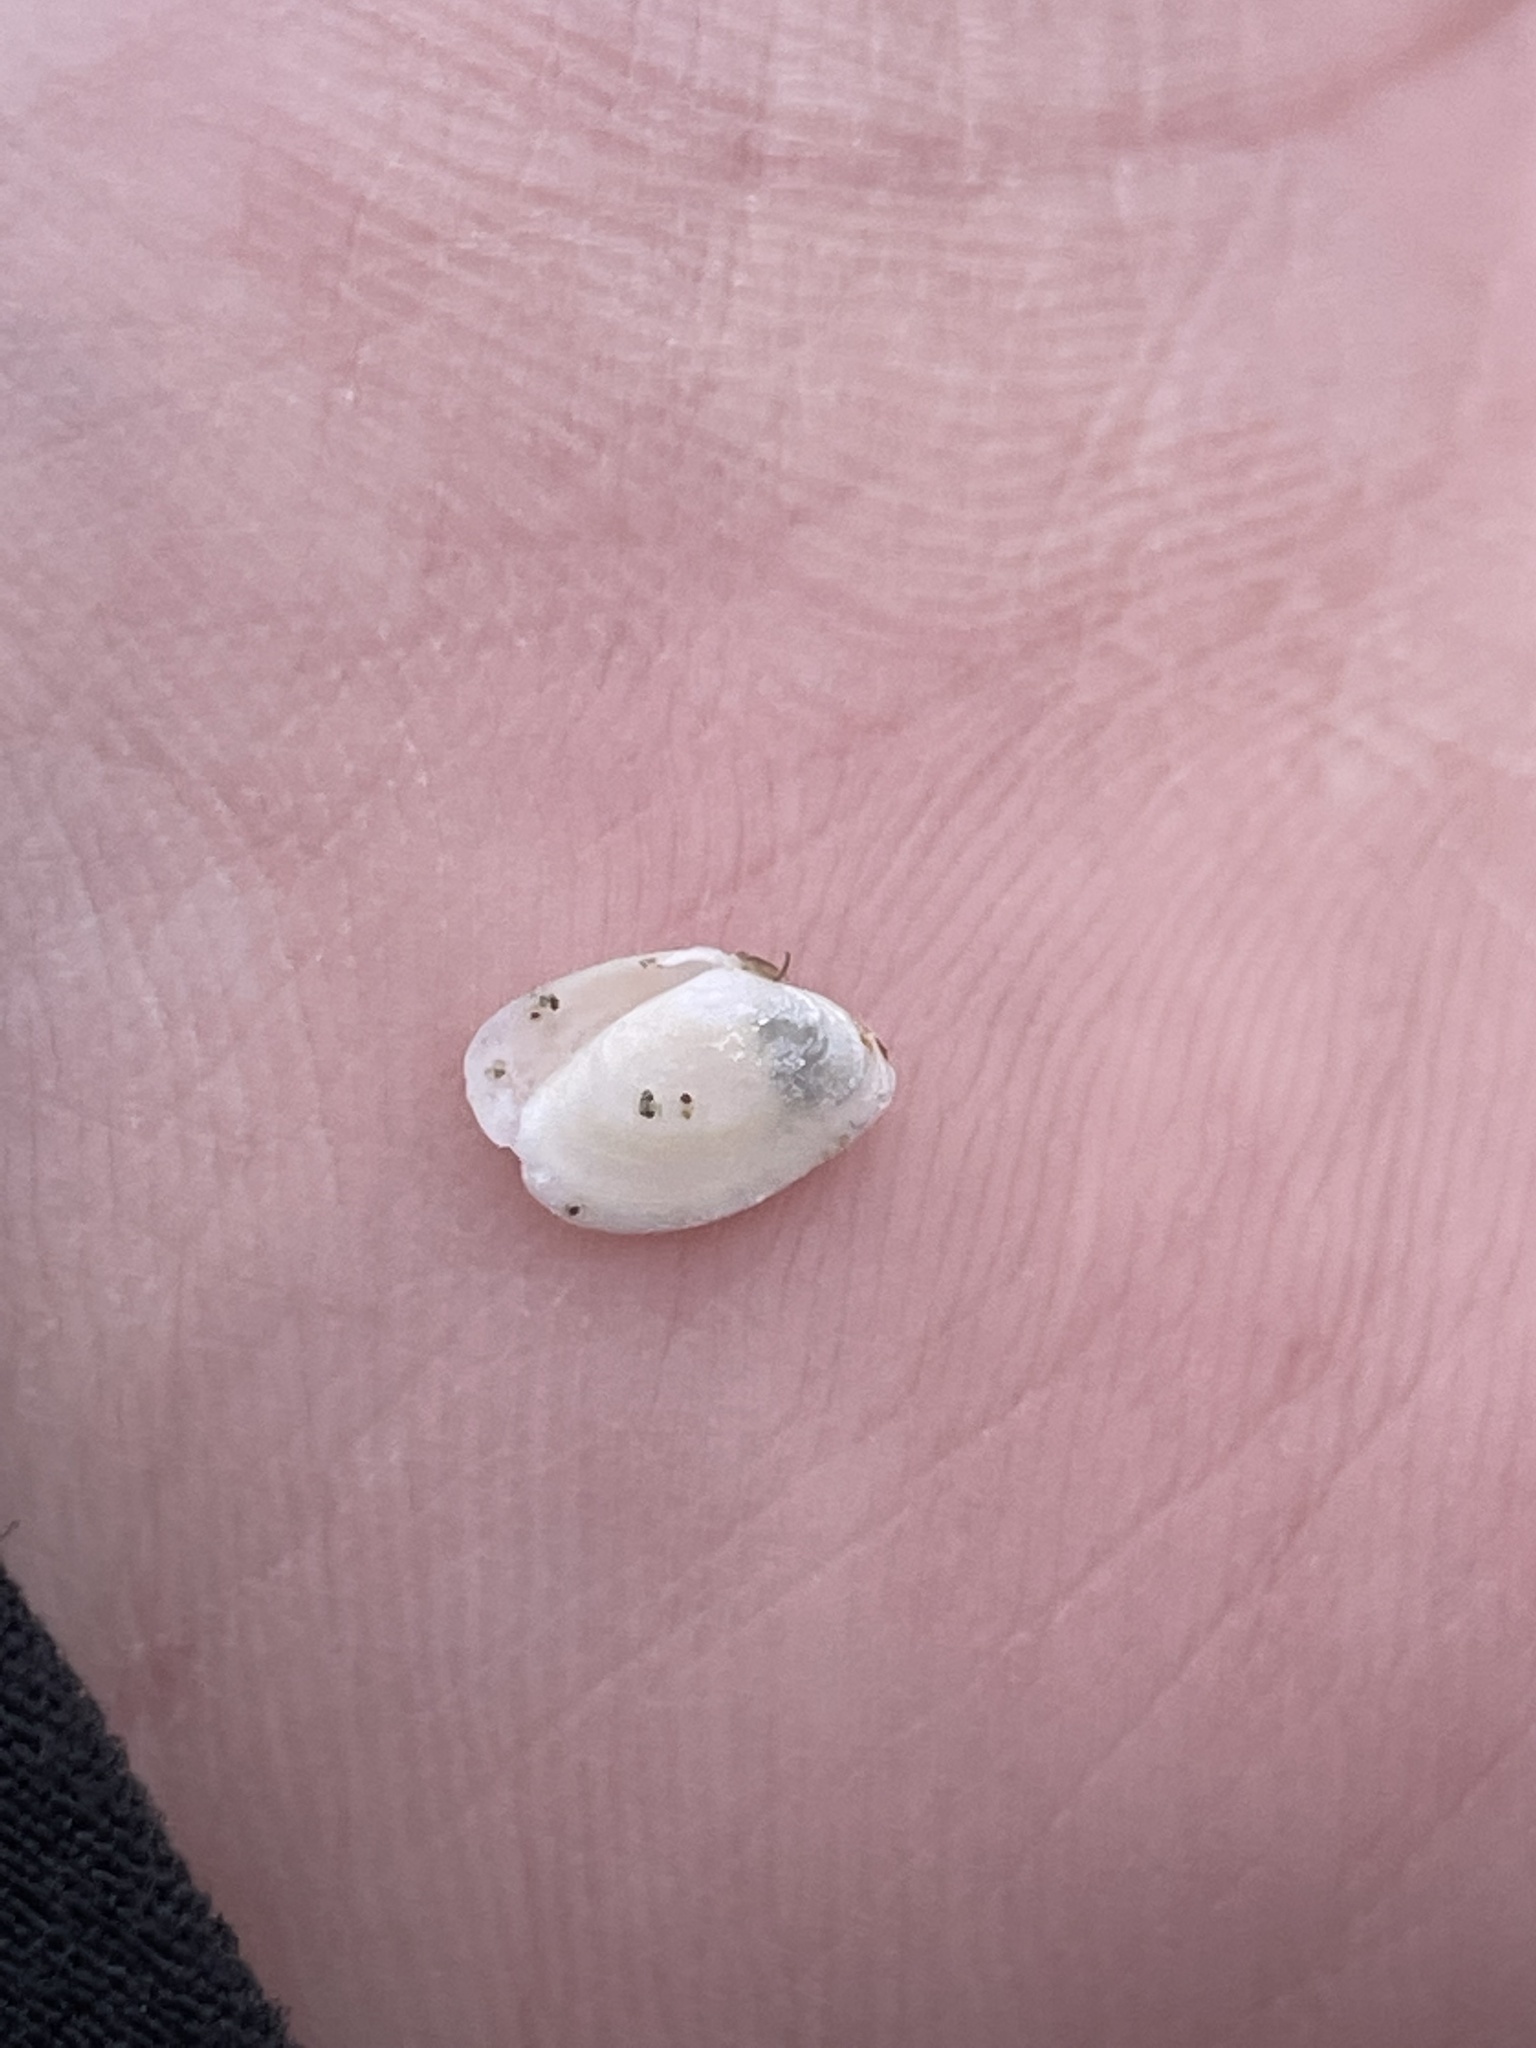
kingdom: Animalia
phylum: Mollusca
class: Bivalvia
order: Cardiida
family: Tellinidae
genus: Ameritella
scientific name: Ameritella agilis
